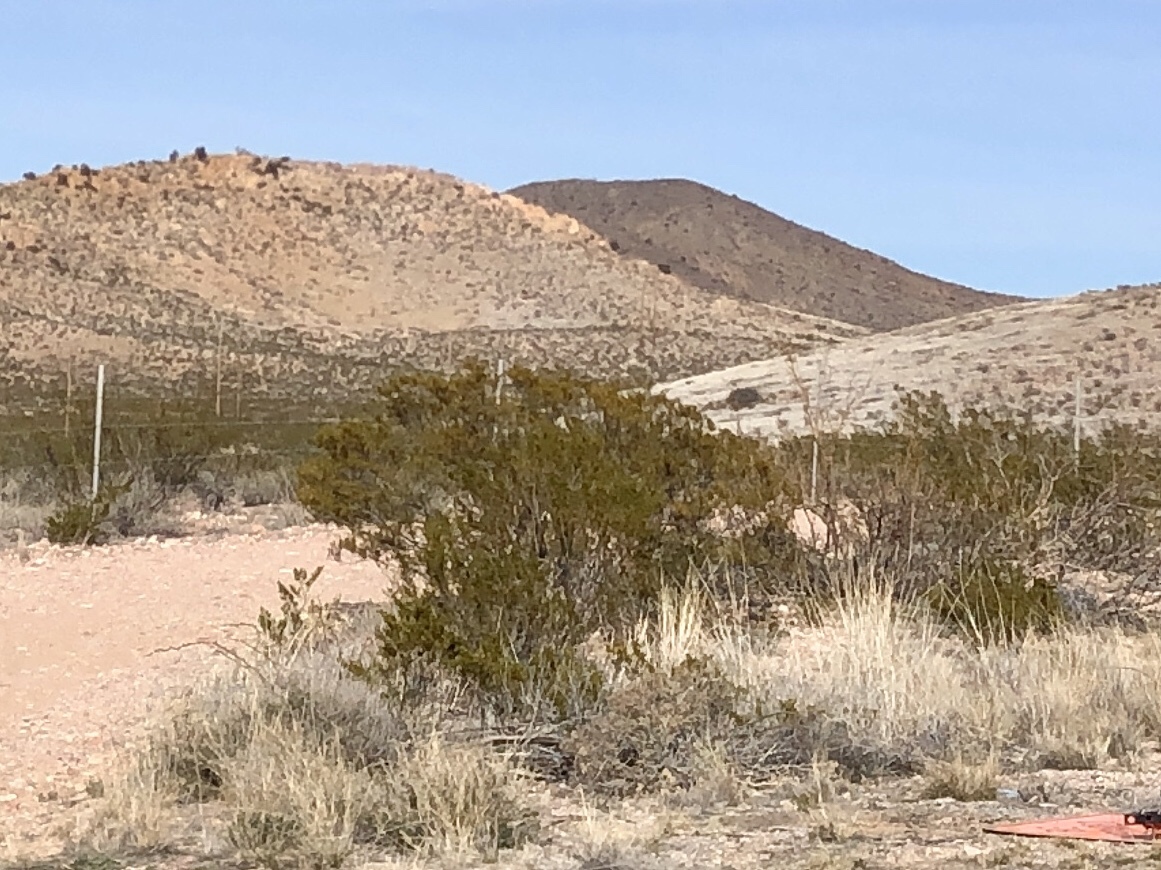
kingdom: Plantae
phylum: Tracheophyta
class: Magnoliopsida
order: Zygophyllales
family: Zygophyllaceae
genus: Larrea
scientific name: Larrea tridentata
